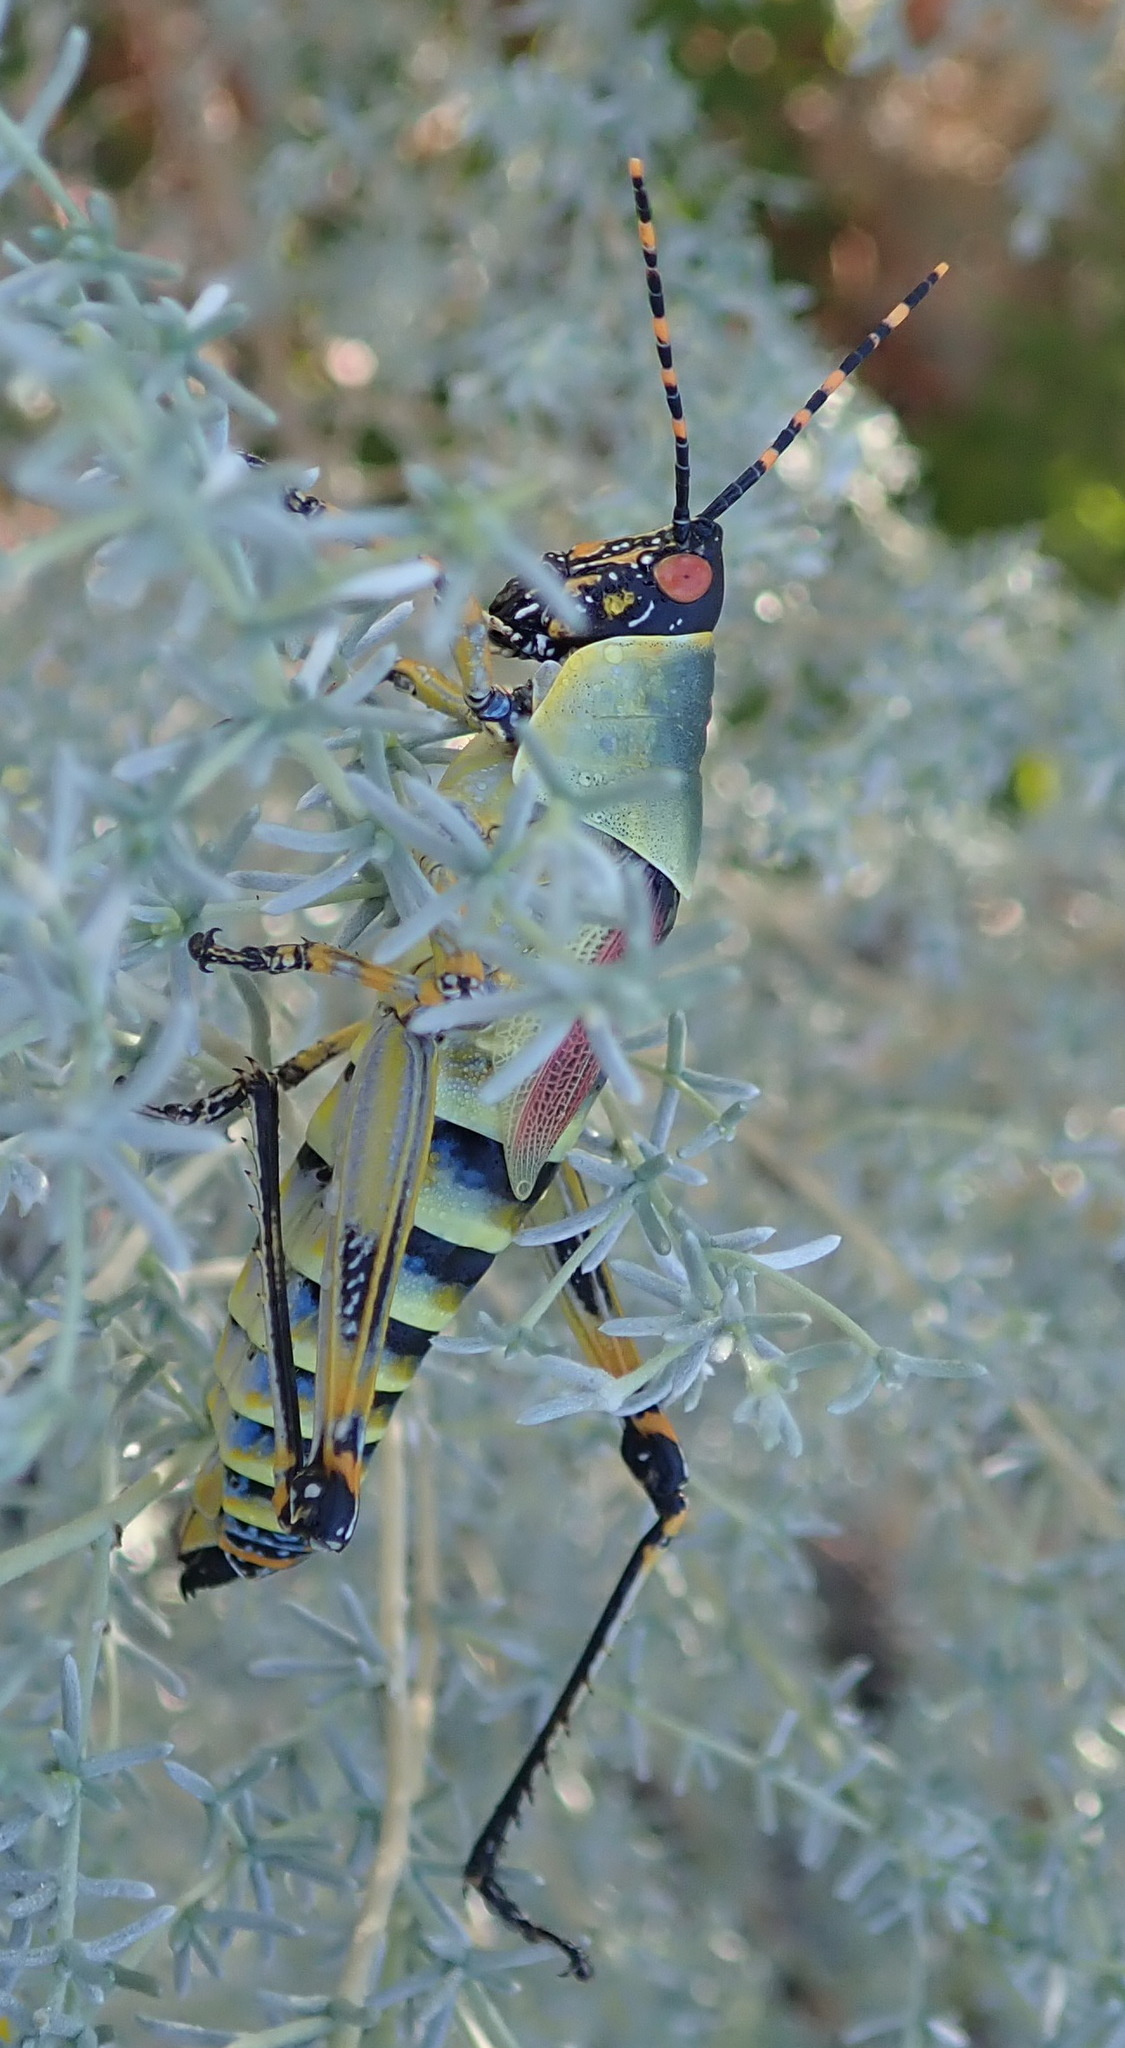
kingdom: Animalia
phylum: Arthropoda
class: Insecta
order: Orthoptera
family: Pyrgomorphidae
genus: Zonocerus
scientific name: Zonocerus elegans
